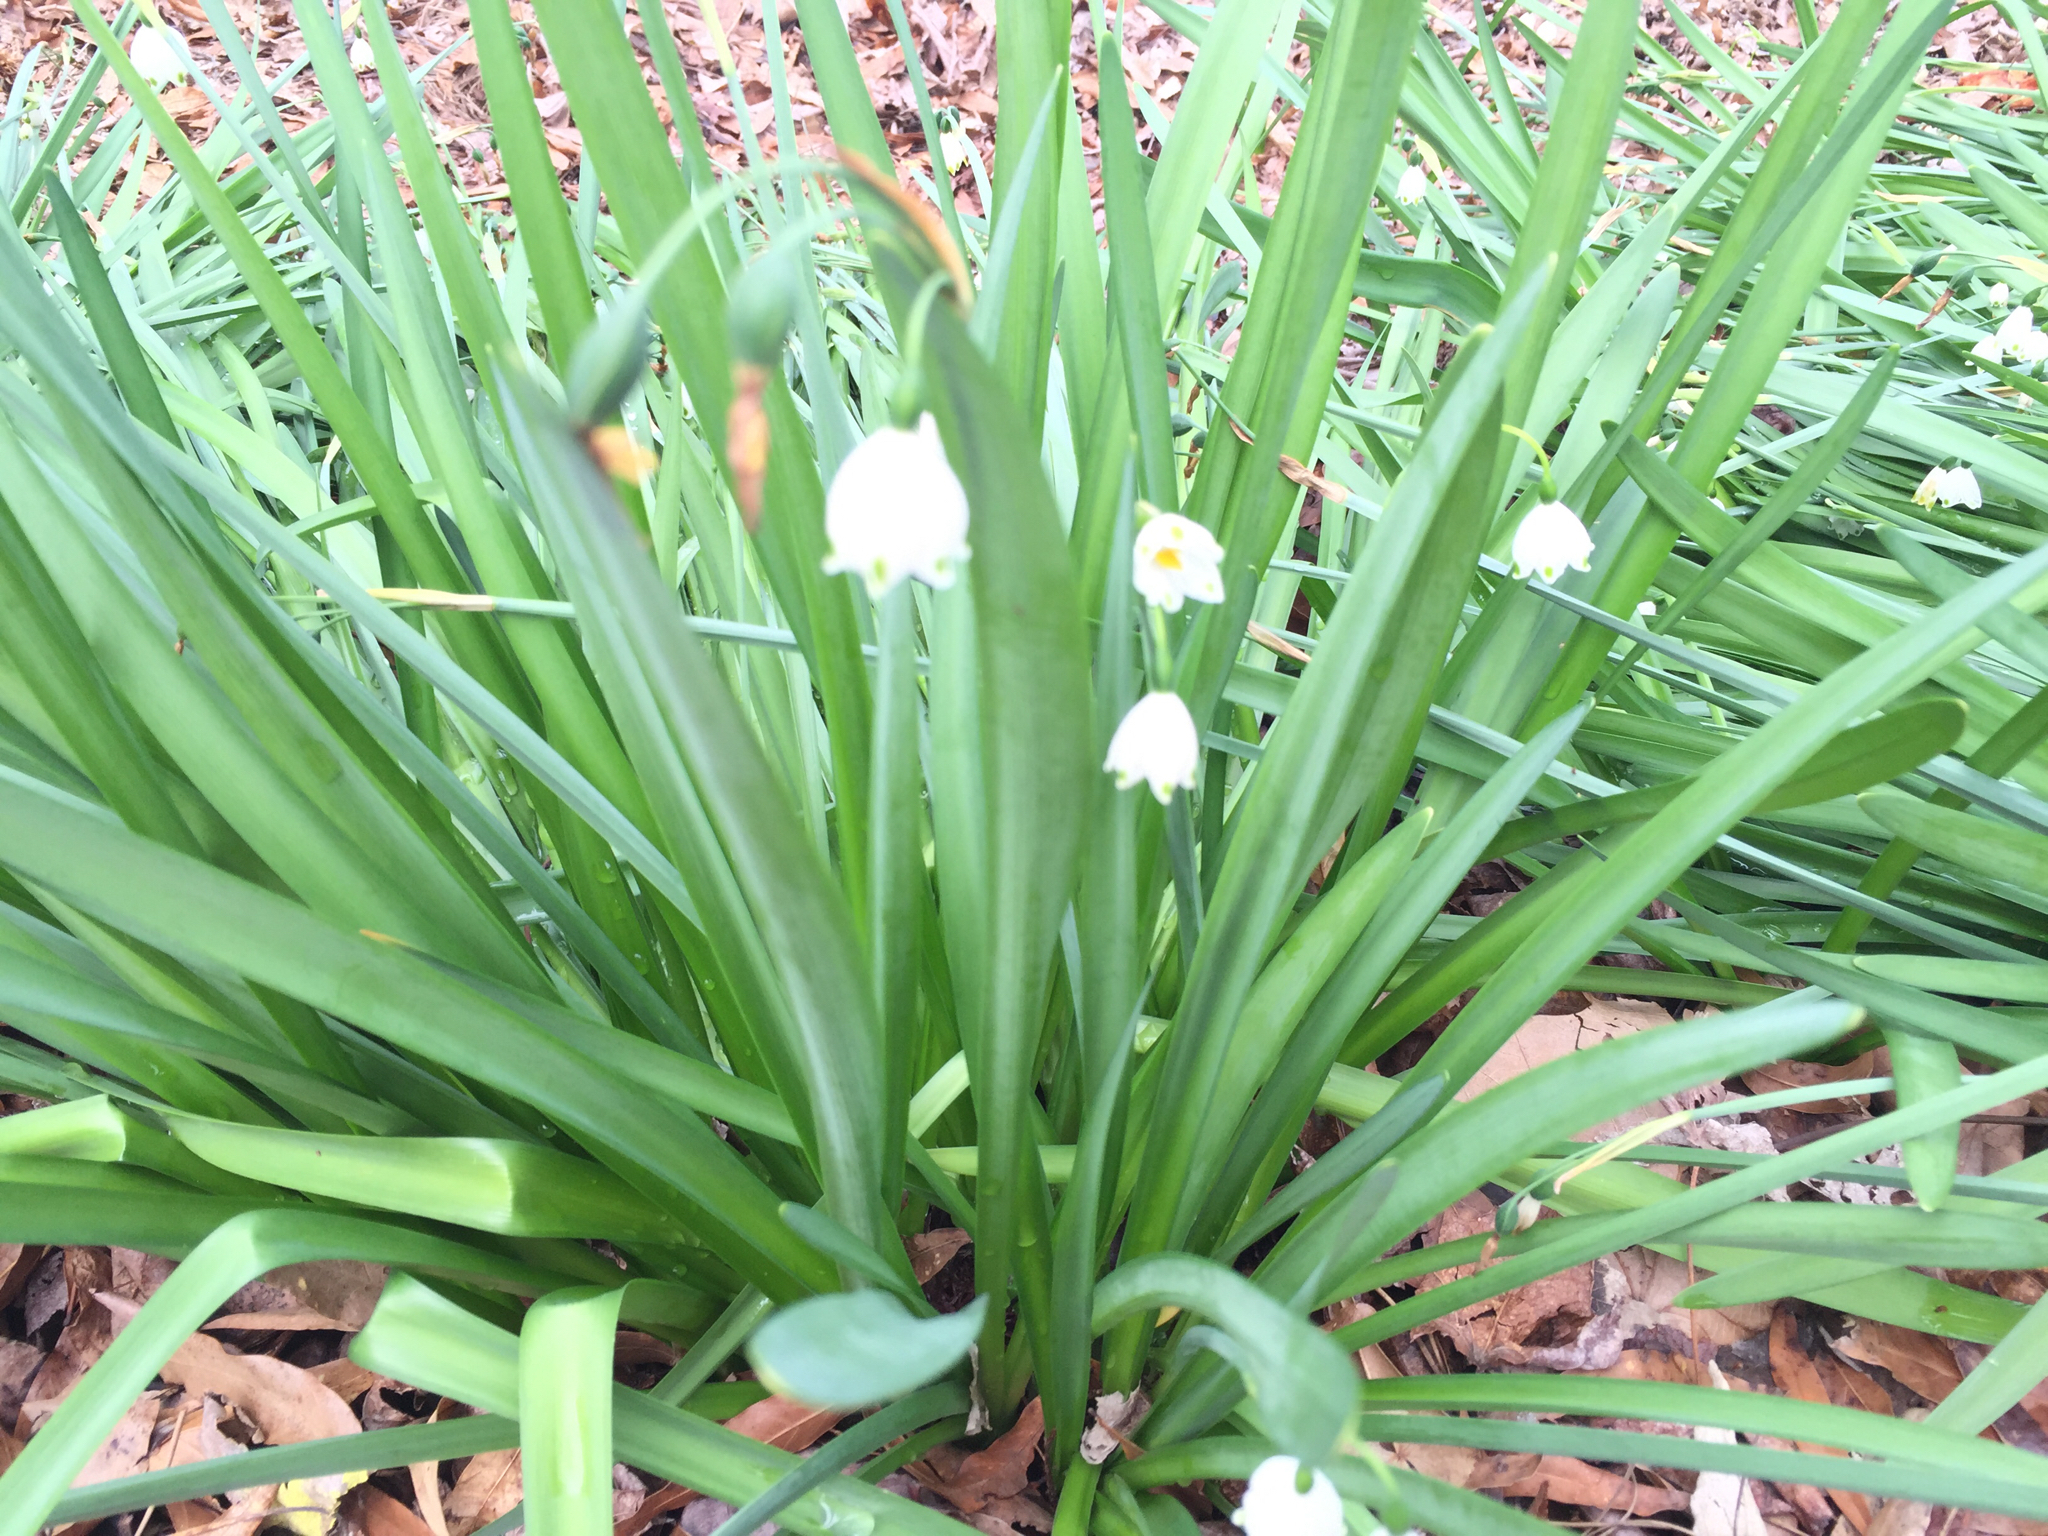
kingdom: Plantae
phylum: Tracheophyta
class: Liliopsida
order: Asparagales
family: Amaryllidaceae
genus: Leucojum
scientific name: Leucojum aestivum
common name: Summer snowflake
